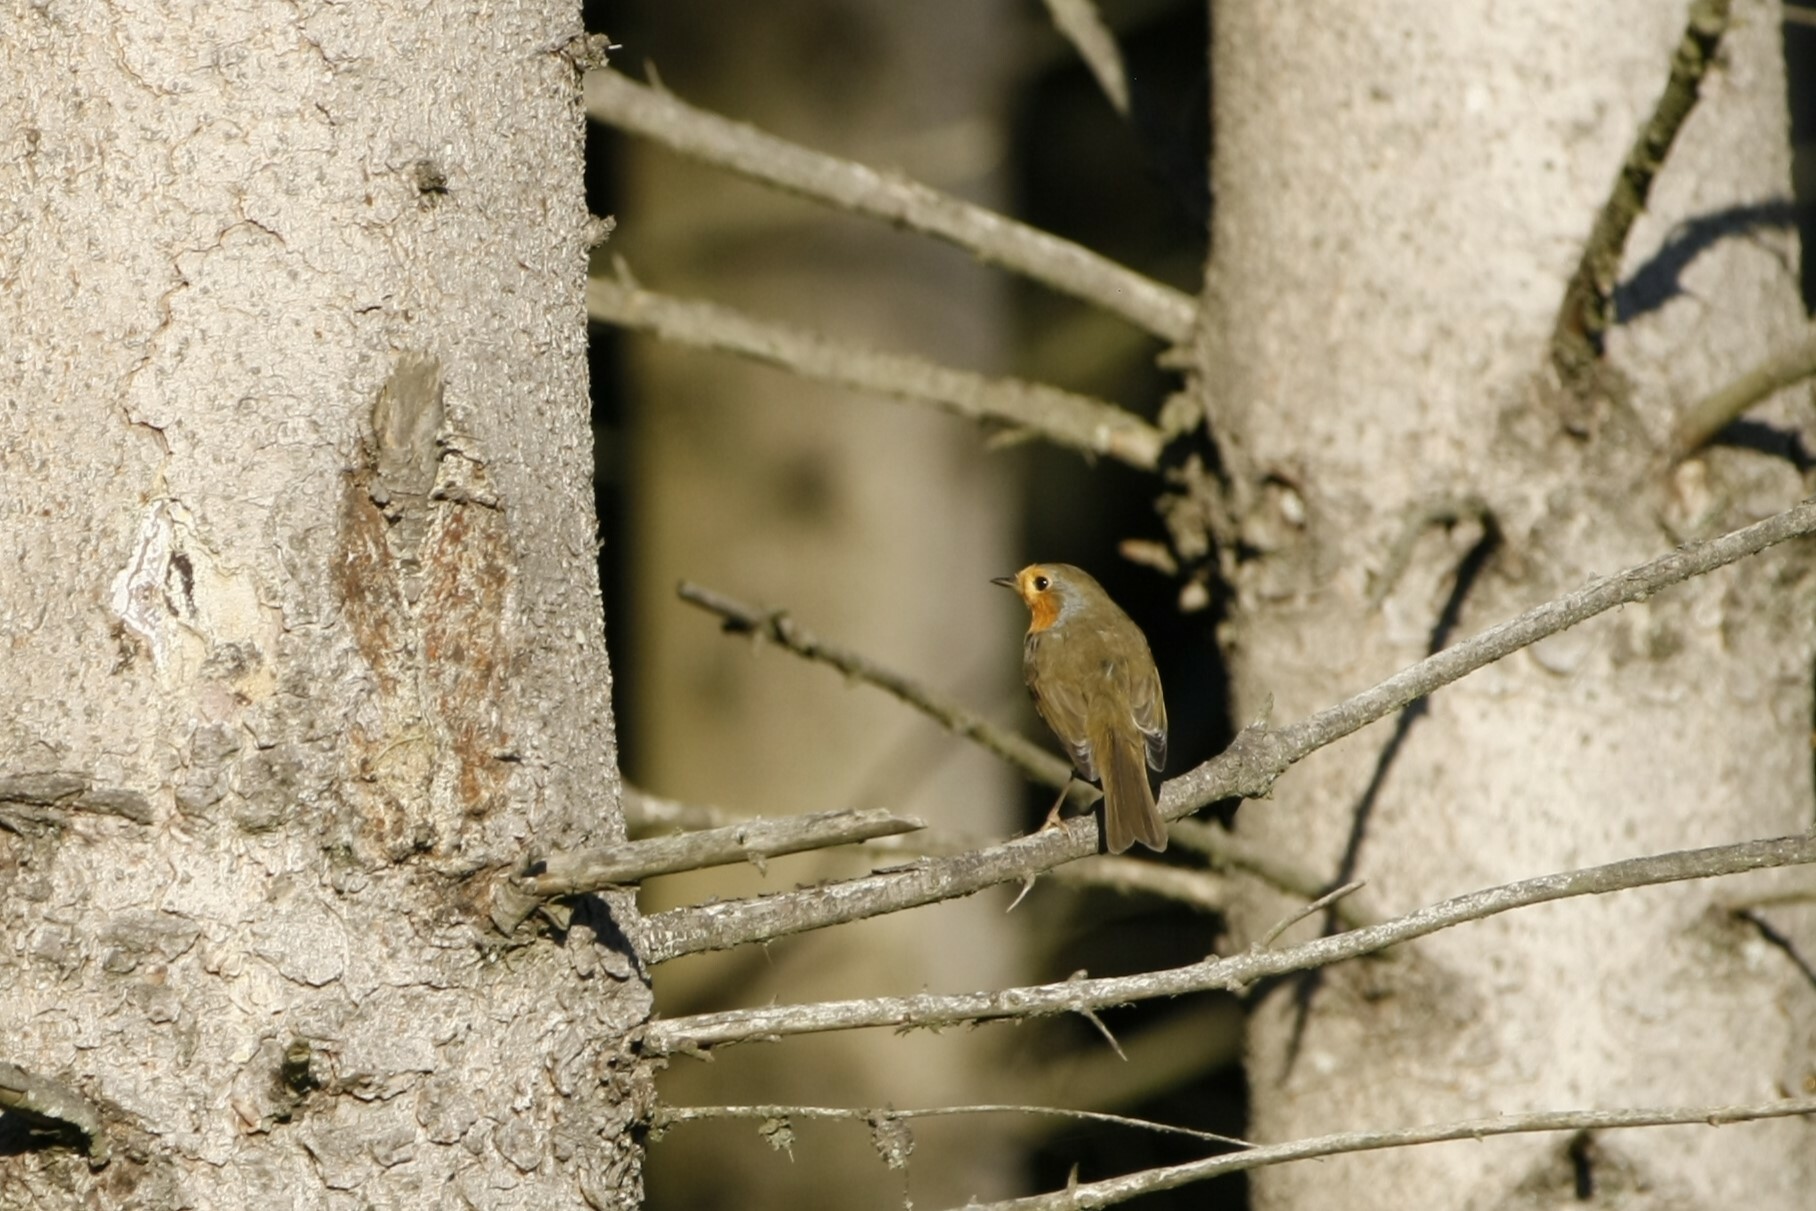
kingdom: Animalia
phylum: Chordata
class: Aves
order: Passeriformes
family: Muscicapidae
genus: Erithacus
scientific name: Erithacus rubecula
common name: European robin
